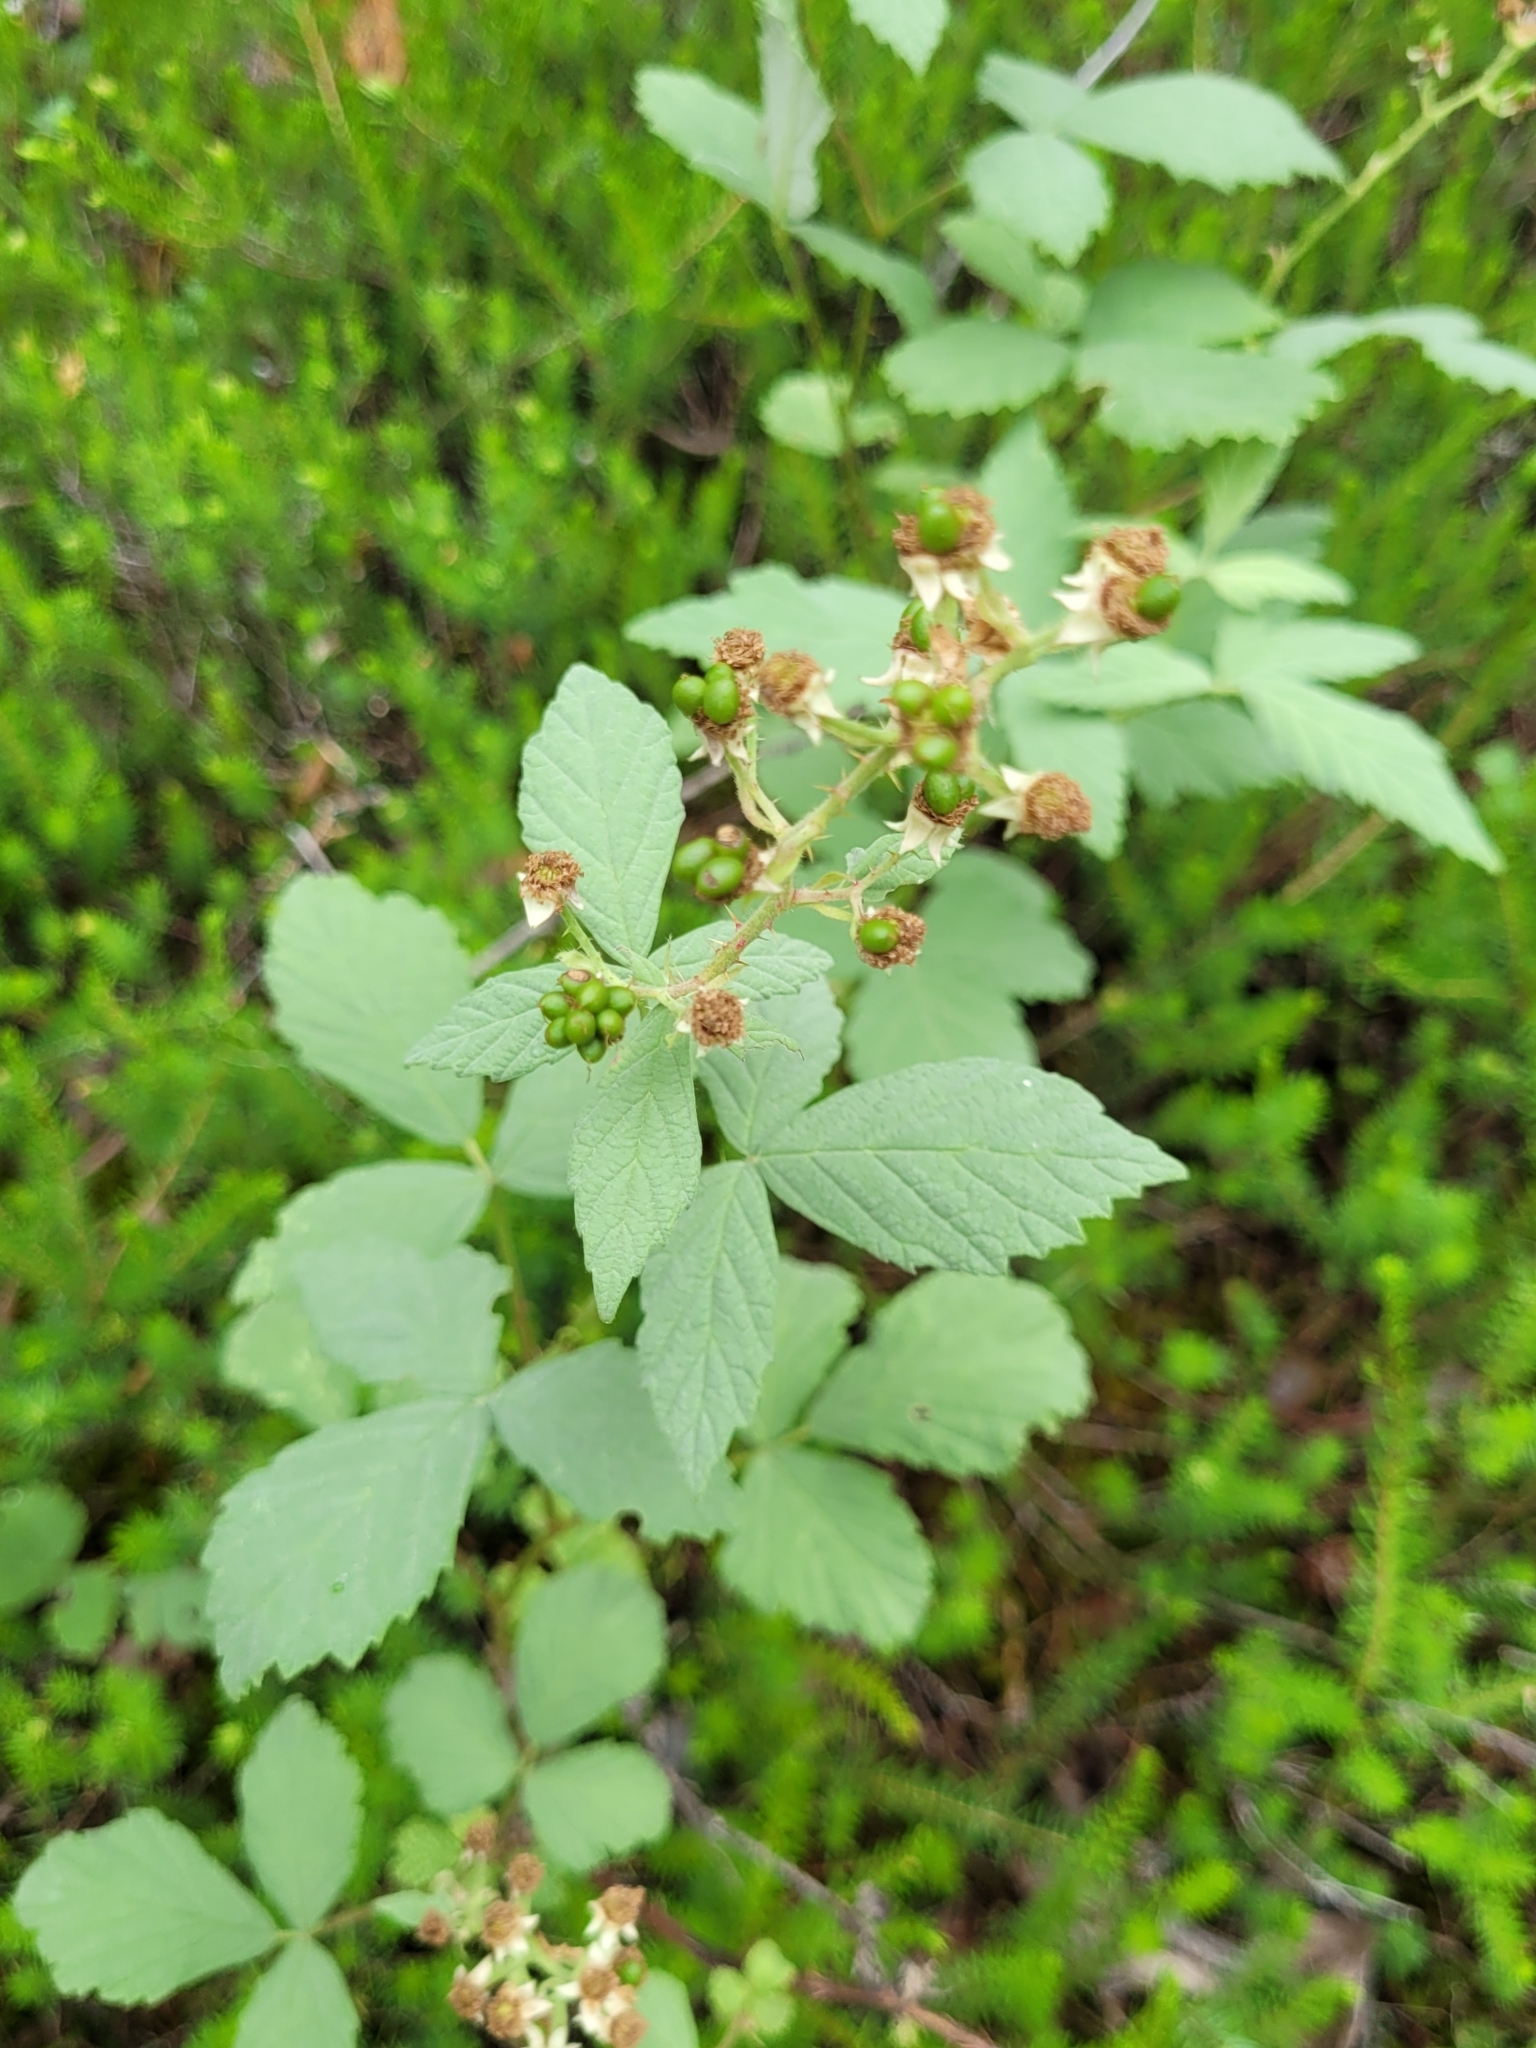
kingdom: Plantae
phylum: Tracheophyta
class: Magnoliopsida
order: Rosales
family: Rosaceae
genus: Rubus
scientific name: Rubus canescens
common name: Wooly blackberry
